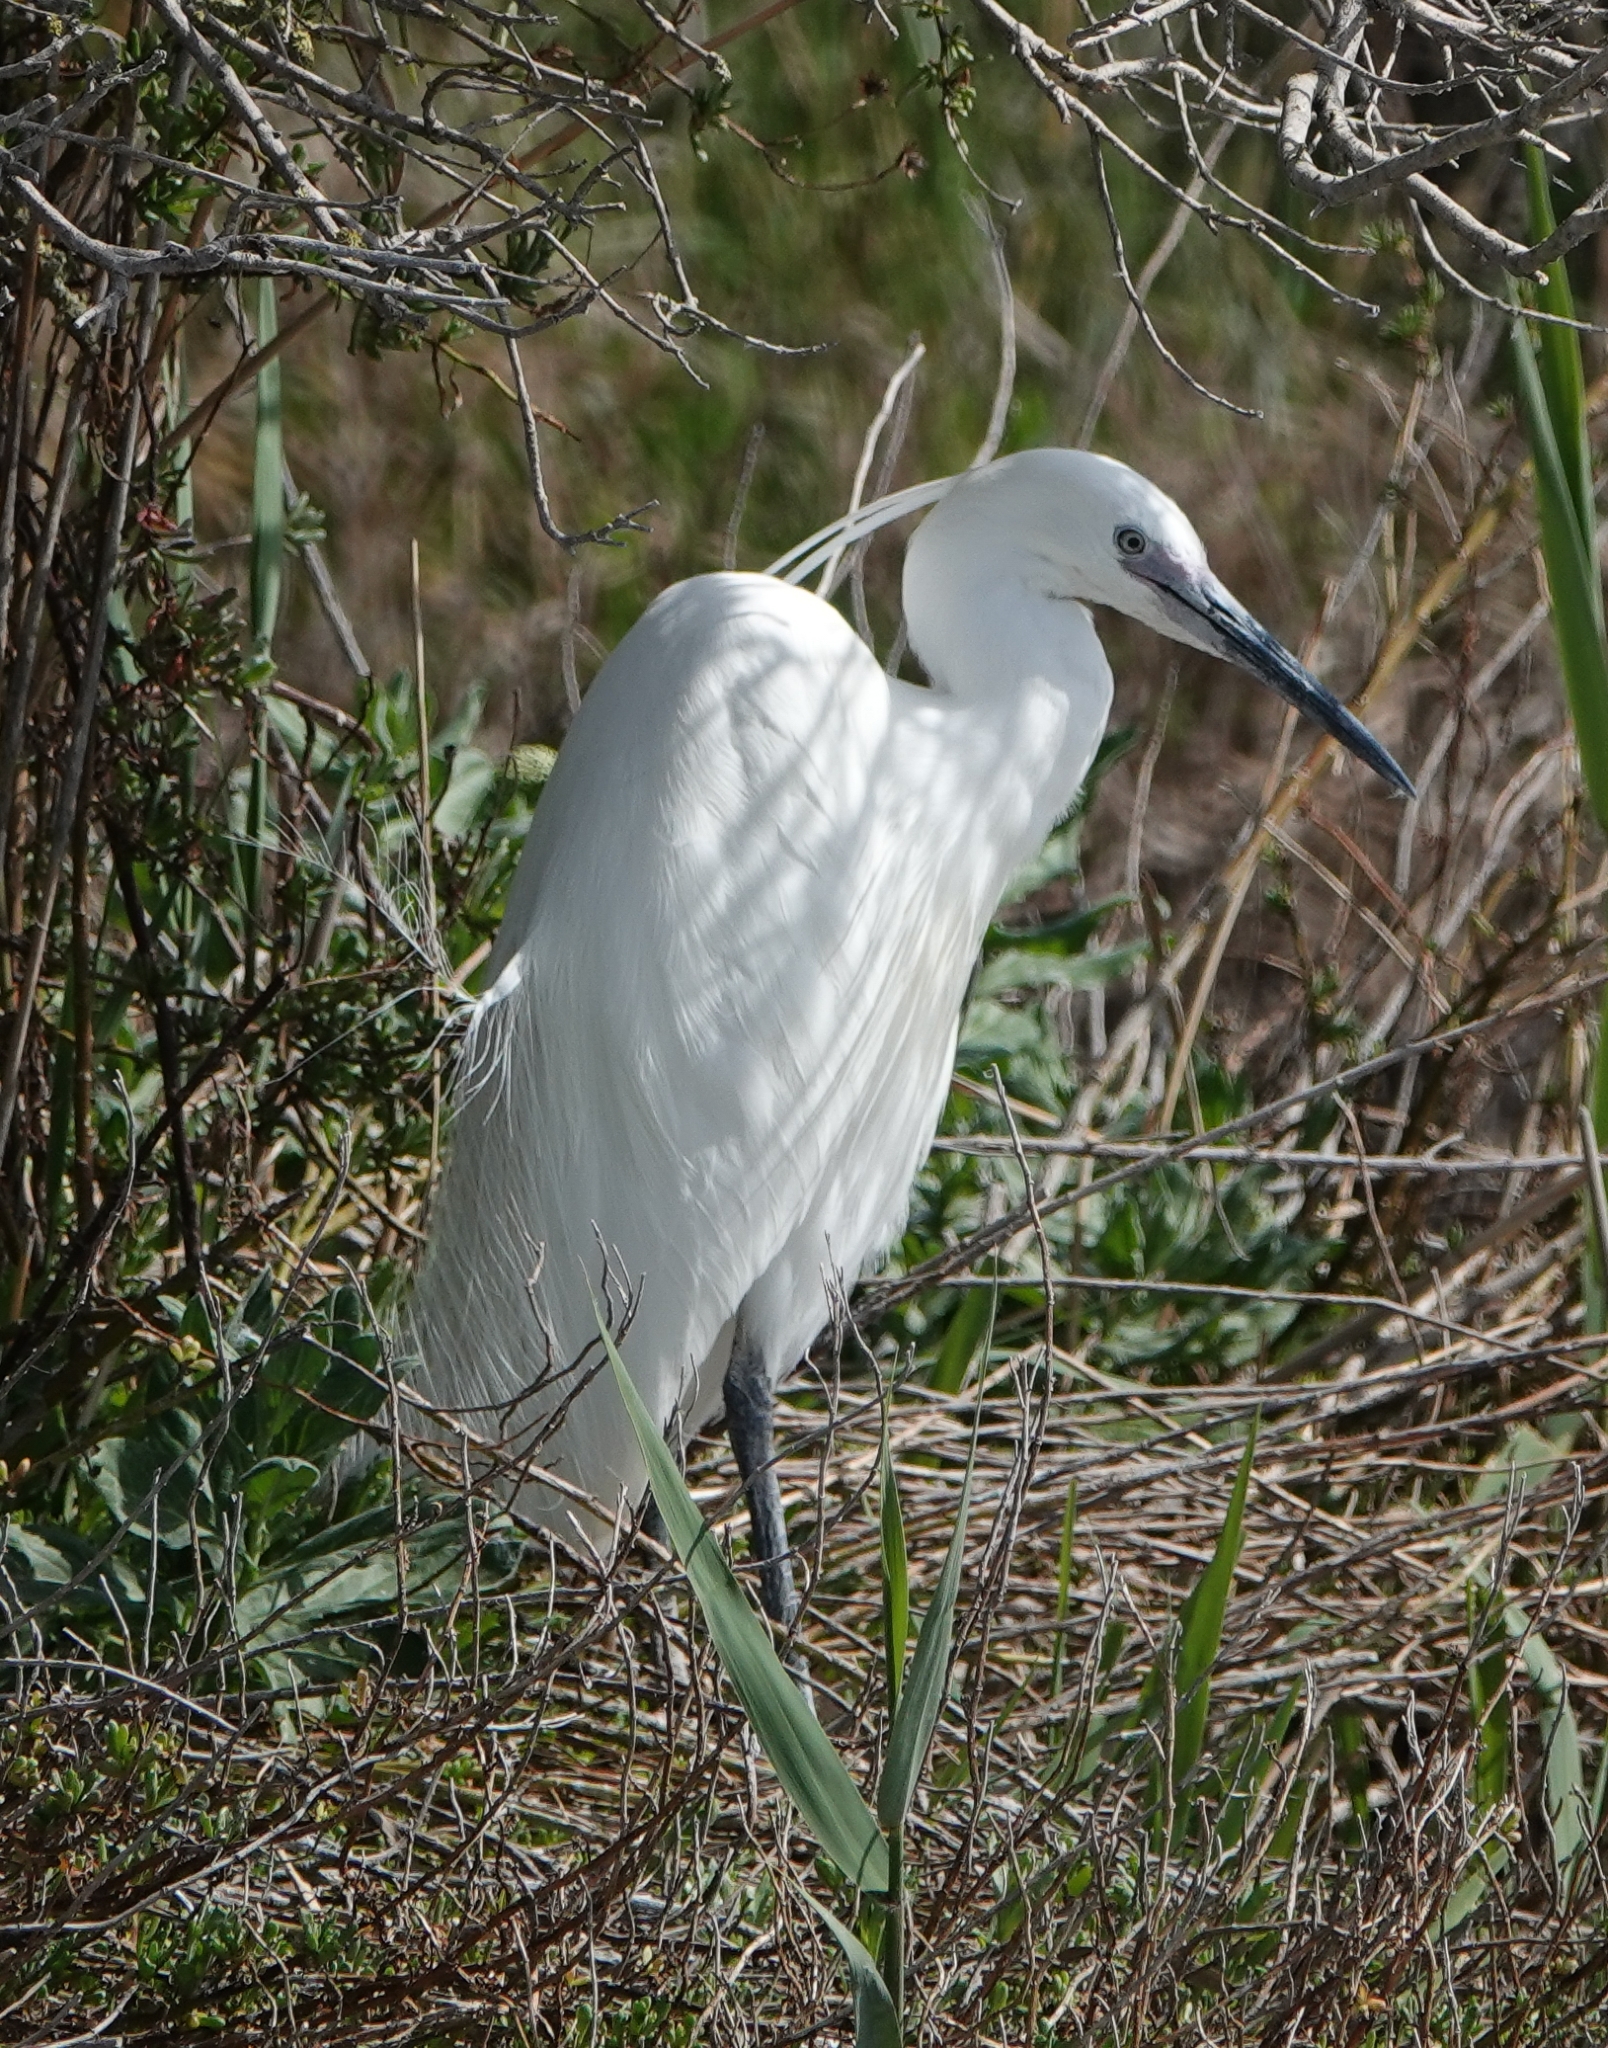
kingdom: Animalia
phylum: Chordata
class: Aves
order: Pelecaniformes
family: Ardeidae
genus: Egretta
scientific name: Egretta garzetta
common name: Little egret
